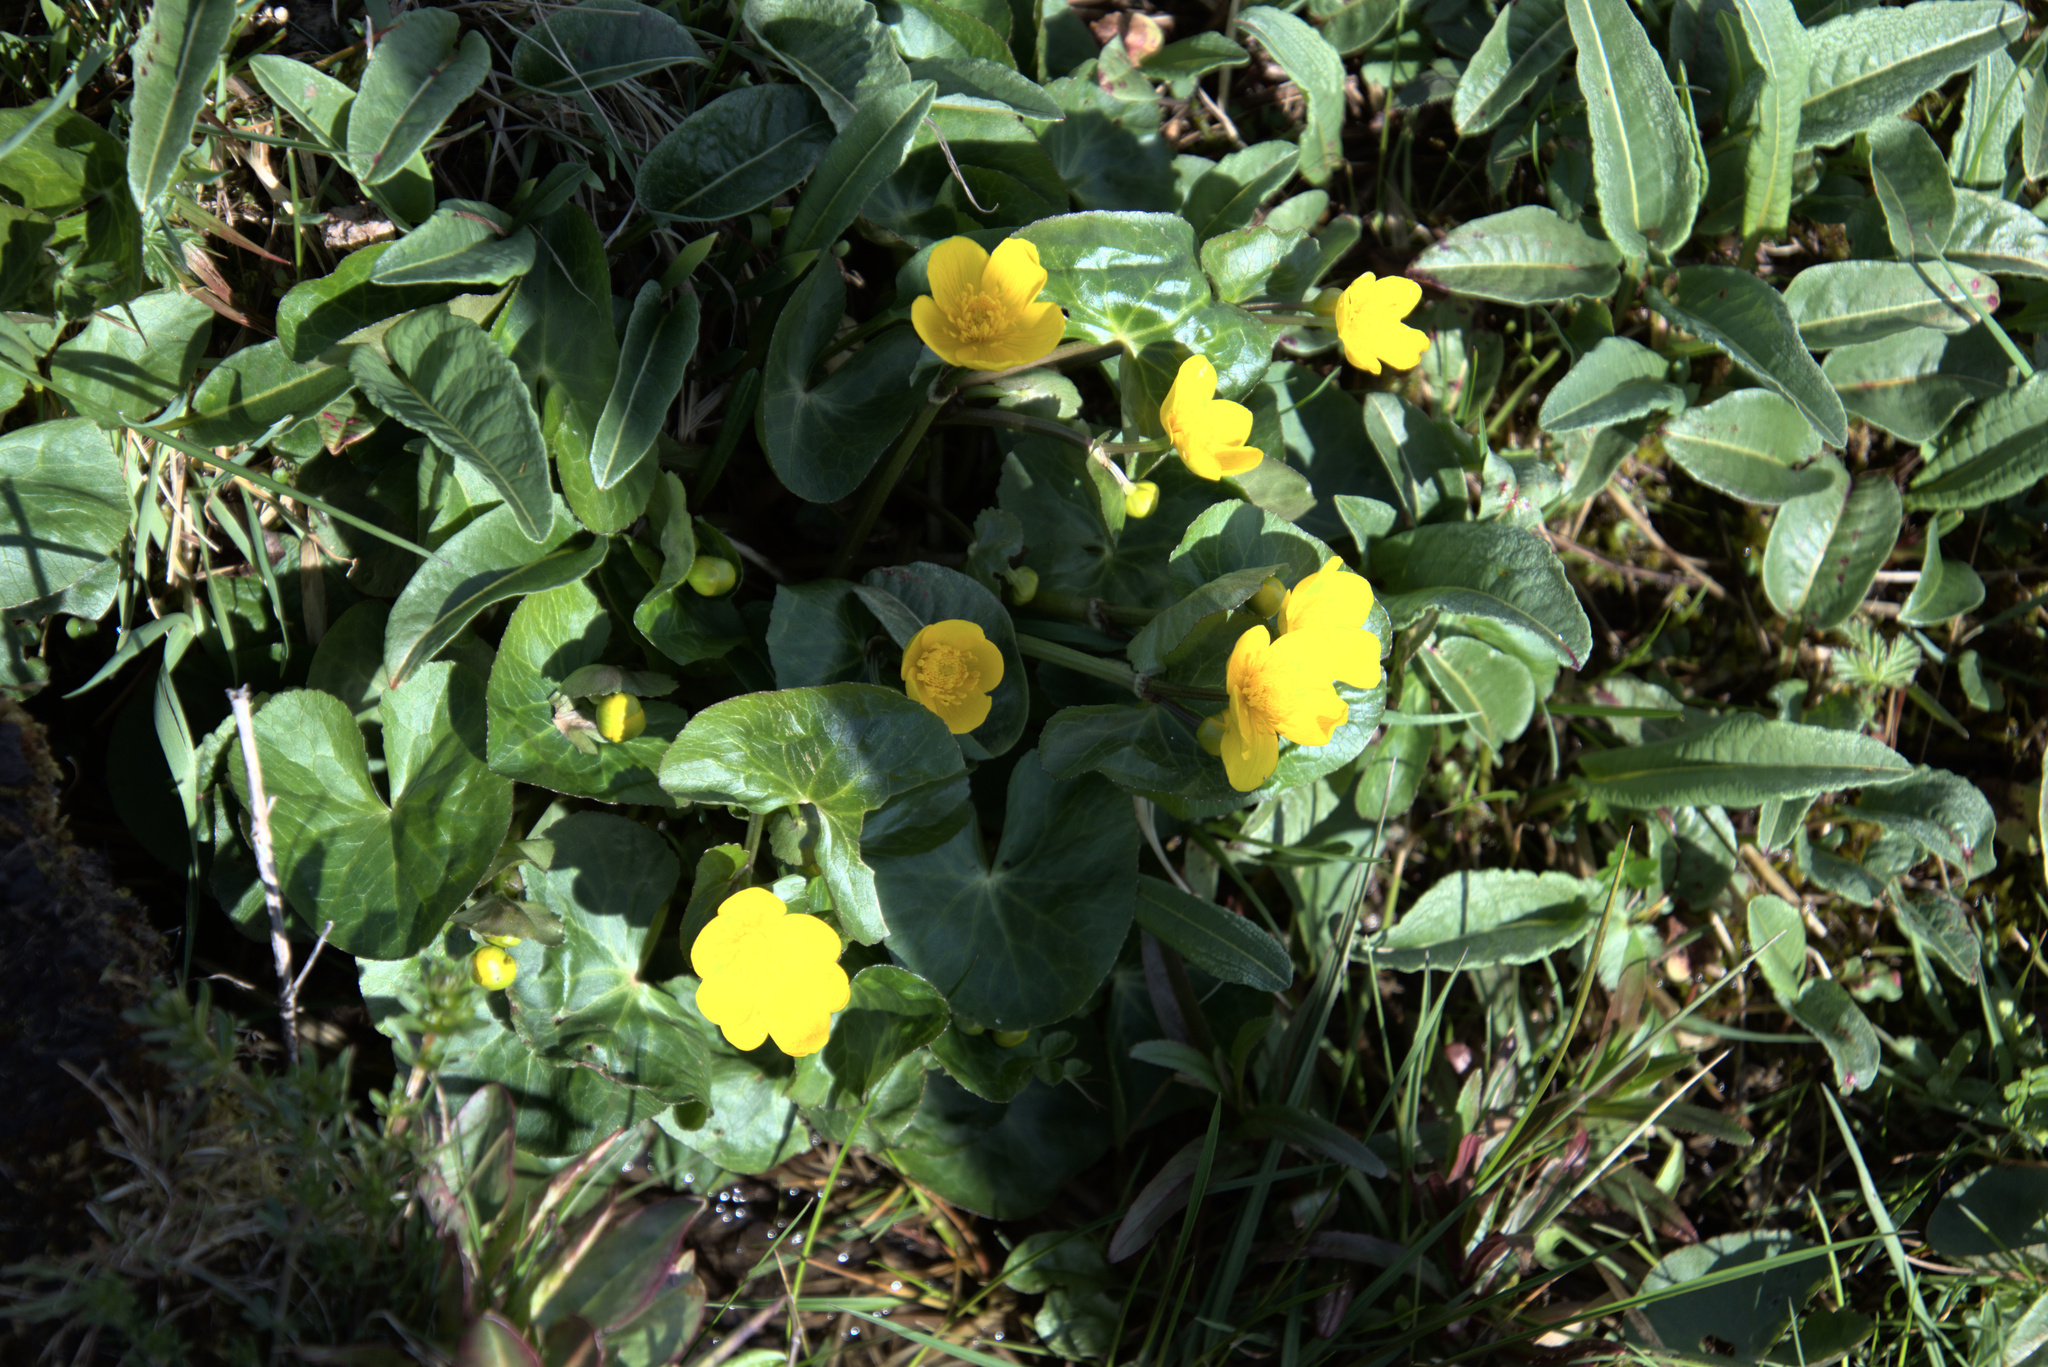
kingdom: Plantae
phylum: Tracheophyta
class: Magnoliopsida
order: Ranunculales
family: Ranunculaceae
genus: Caltha
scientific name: Caltha palustris
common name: Marsh marigold
